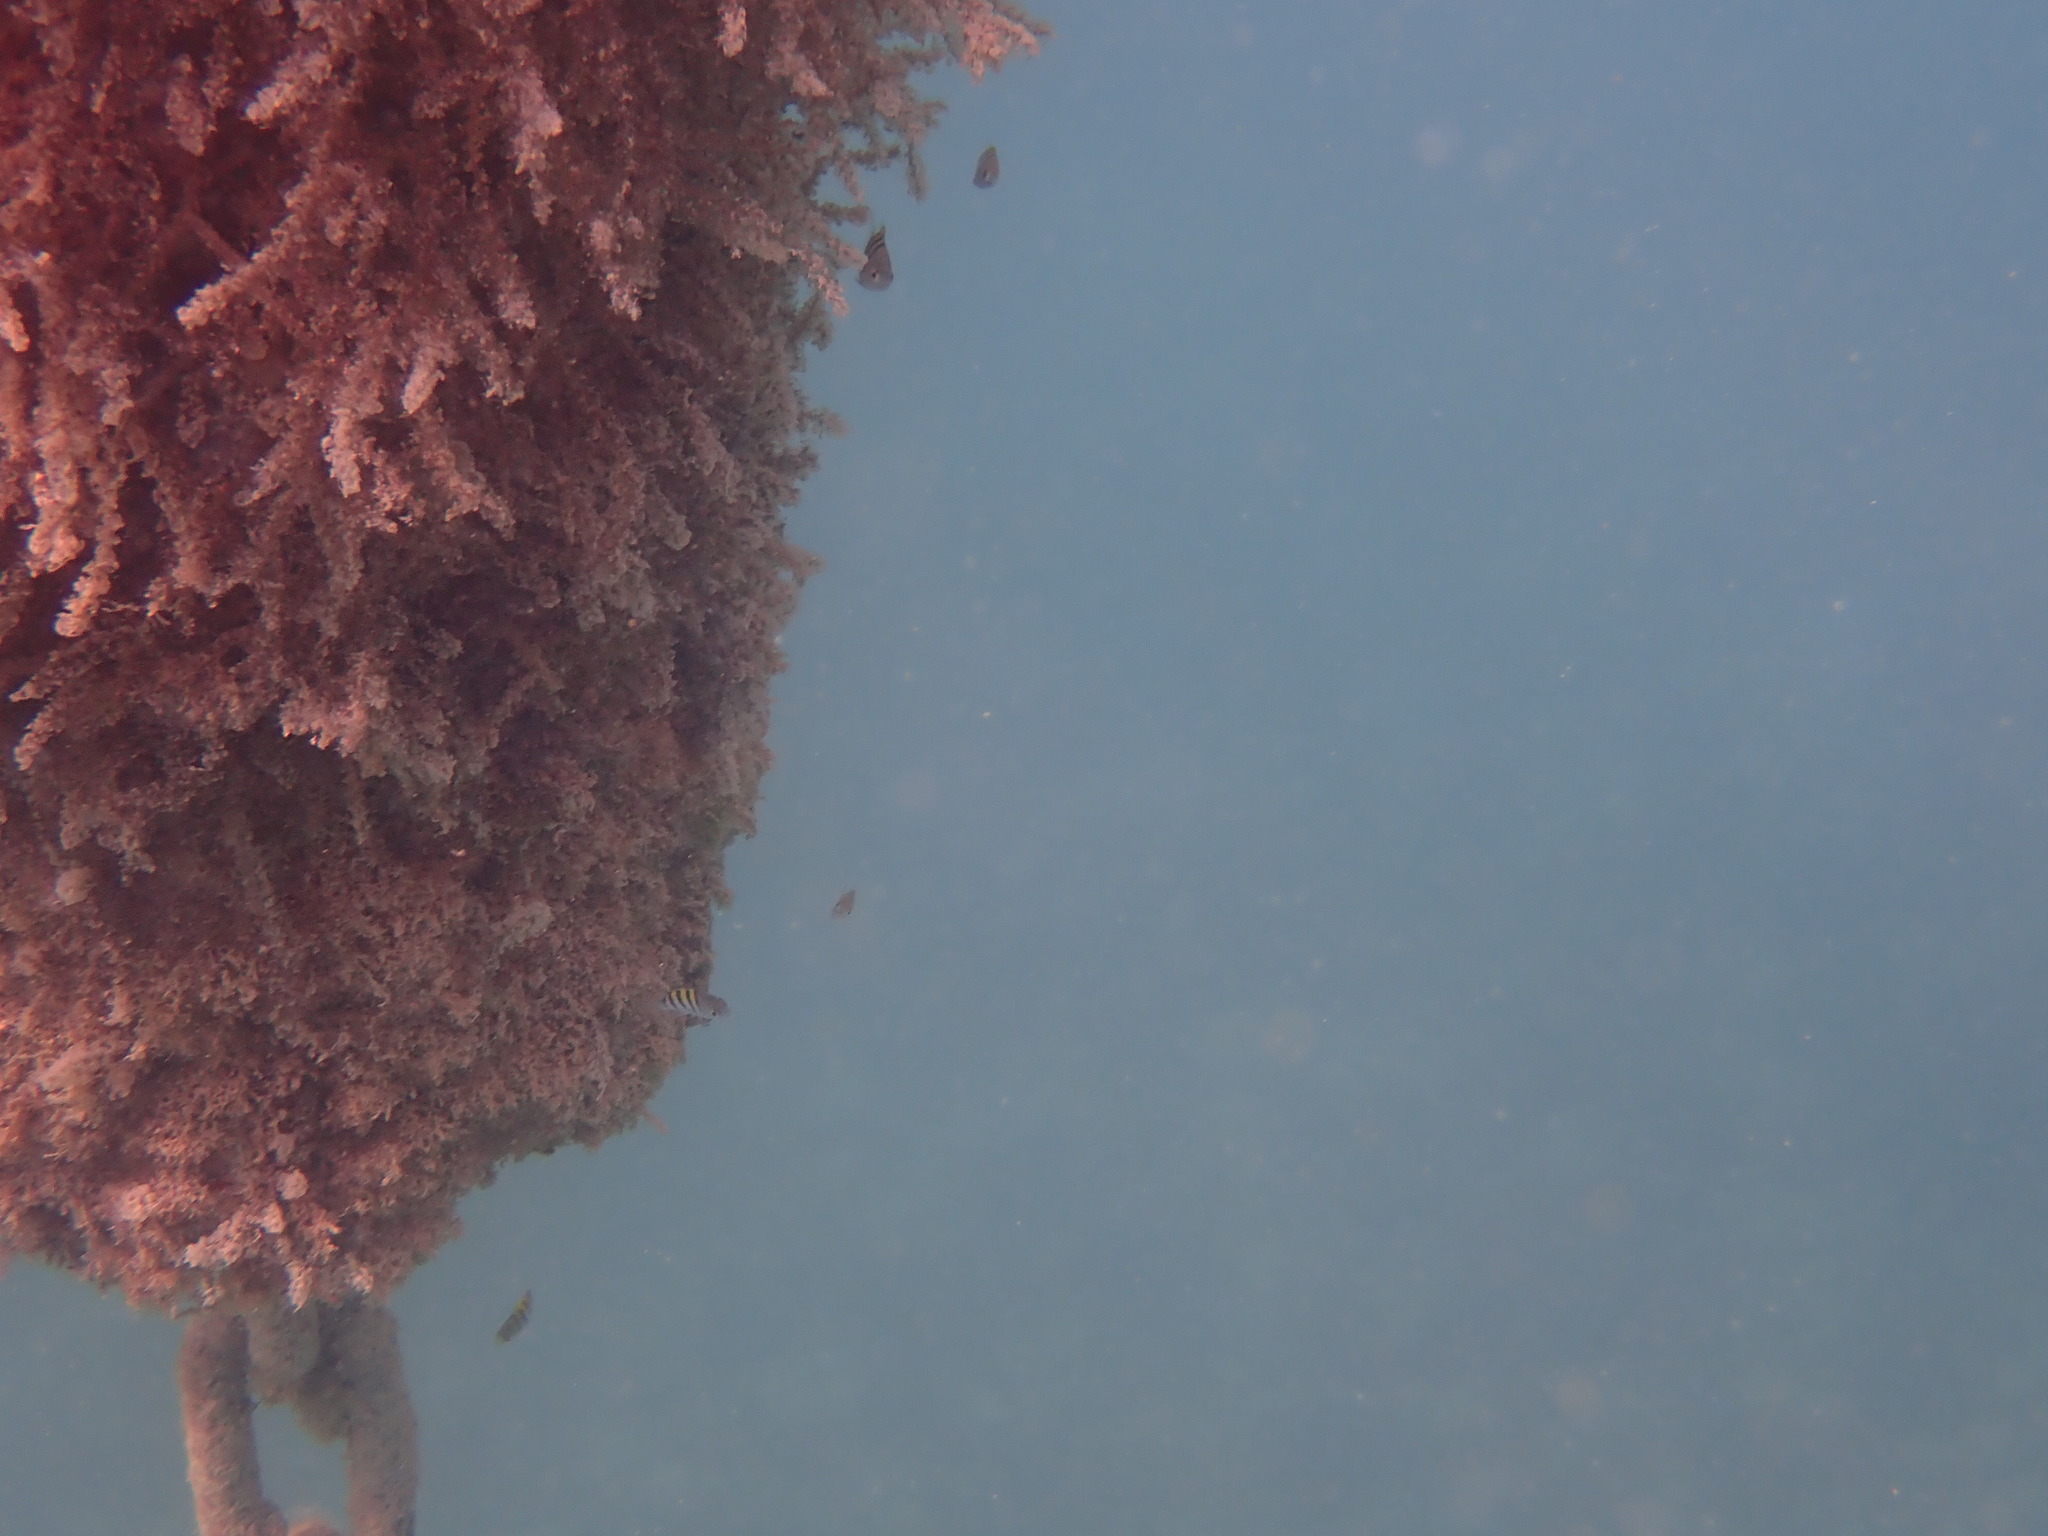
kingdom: Animalia
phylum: Chordata
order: Perciformes
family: Pomacentridae
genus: Abudefduf
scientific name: Abudefduf saxatilis
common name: Sergeant major
